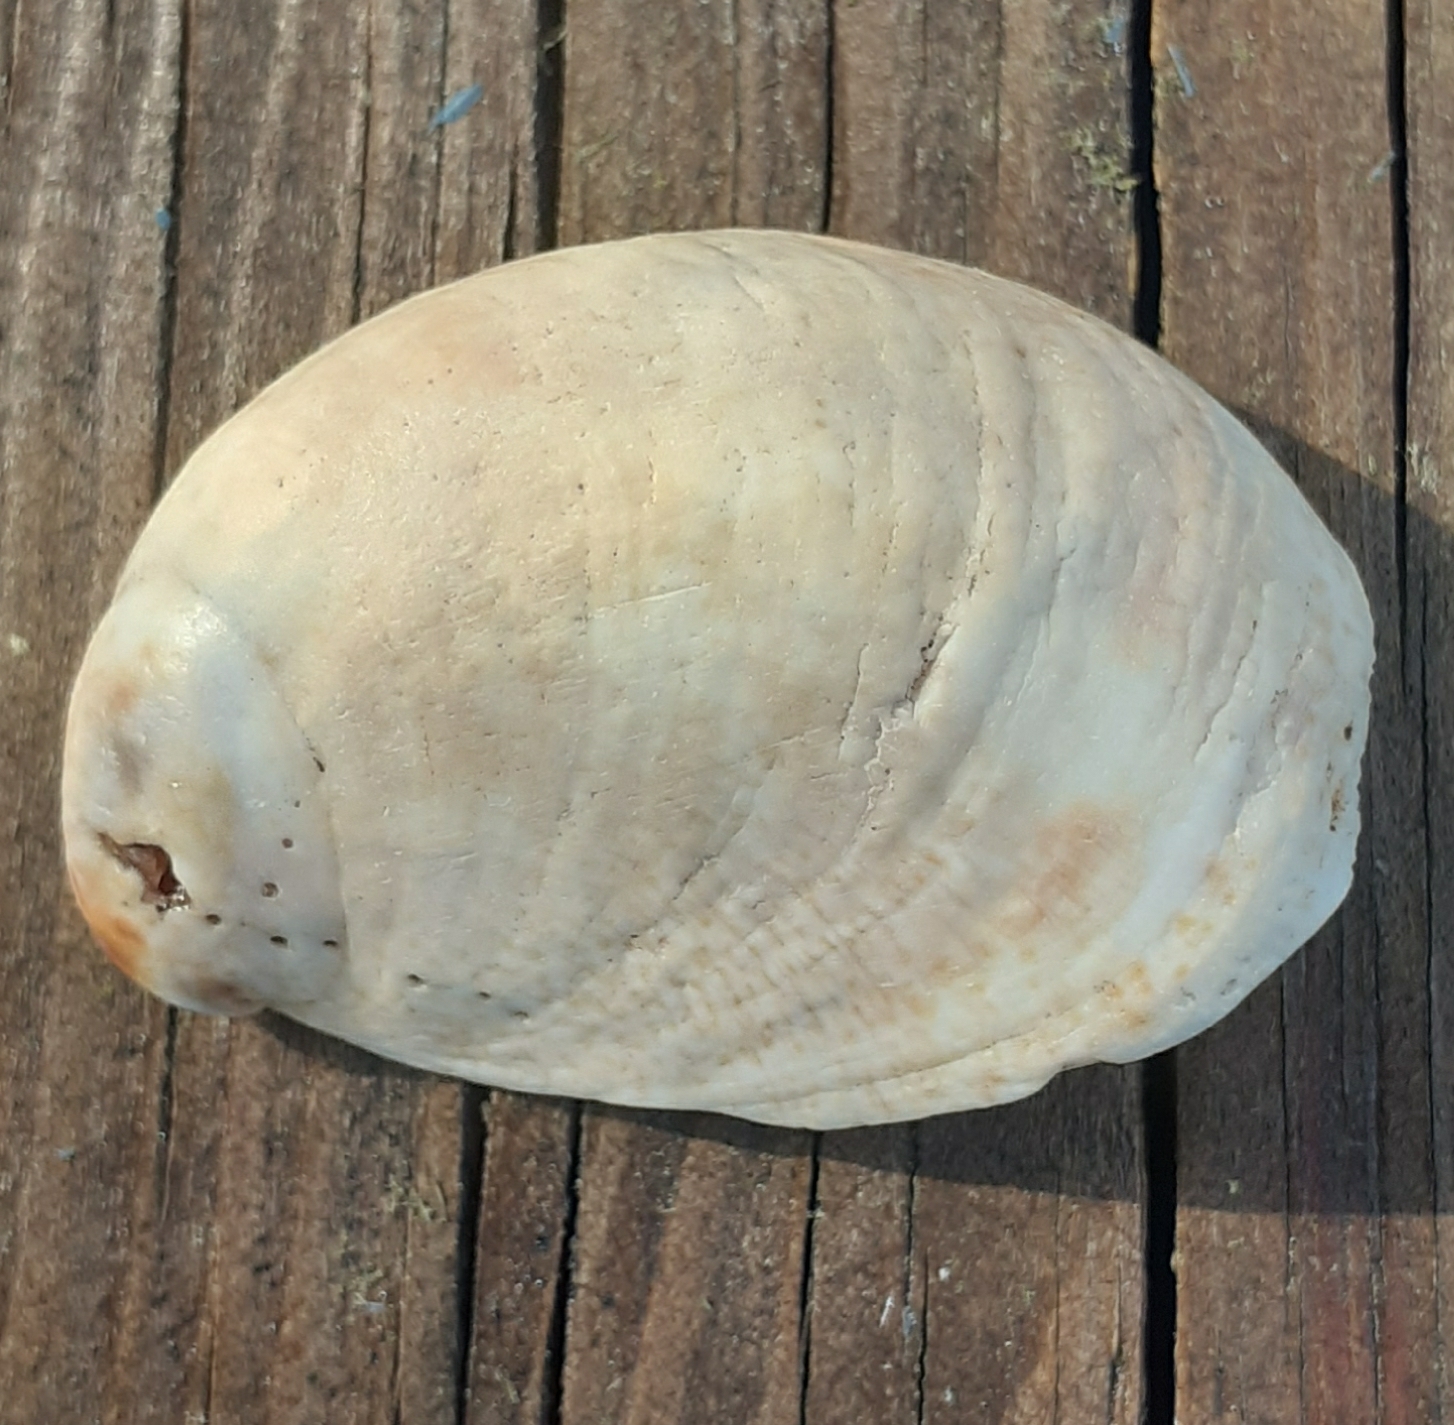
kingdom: Animalia
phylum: Mollusca
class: Gastropoda
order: Littorinimorpha
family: Calyptraeidae
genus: Crepidula
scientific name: Crepidula fornicata
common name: Slipper limpet
